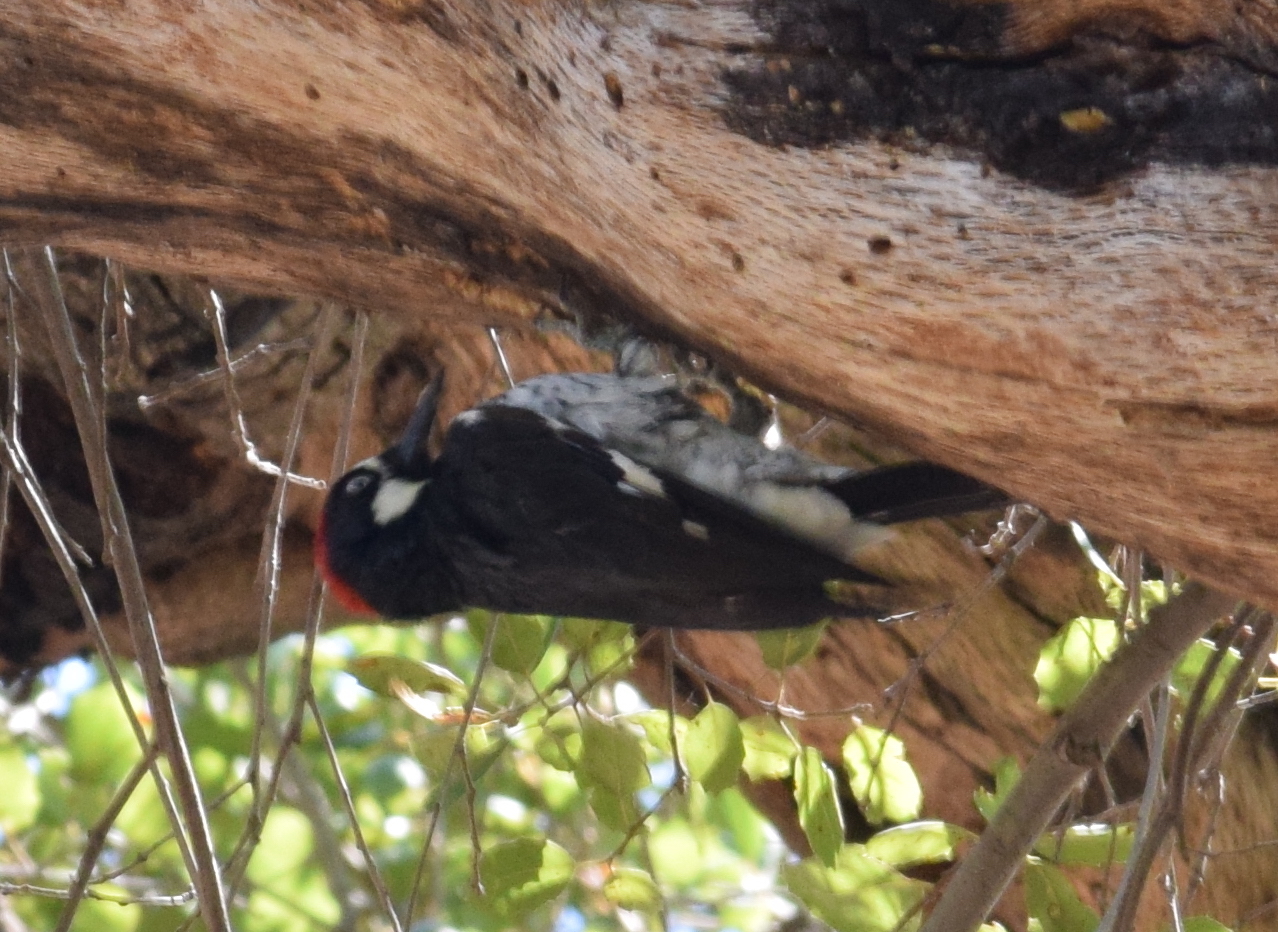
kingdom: Animalia
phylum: Chordata
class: Aves
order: Piciformes
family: Picidae
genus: Melanerpes
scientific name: Melanerpes formicivorus
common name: Acorn woodpecker
